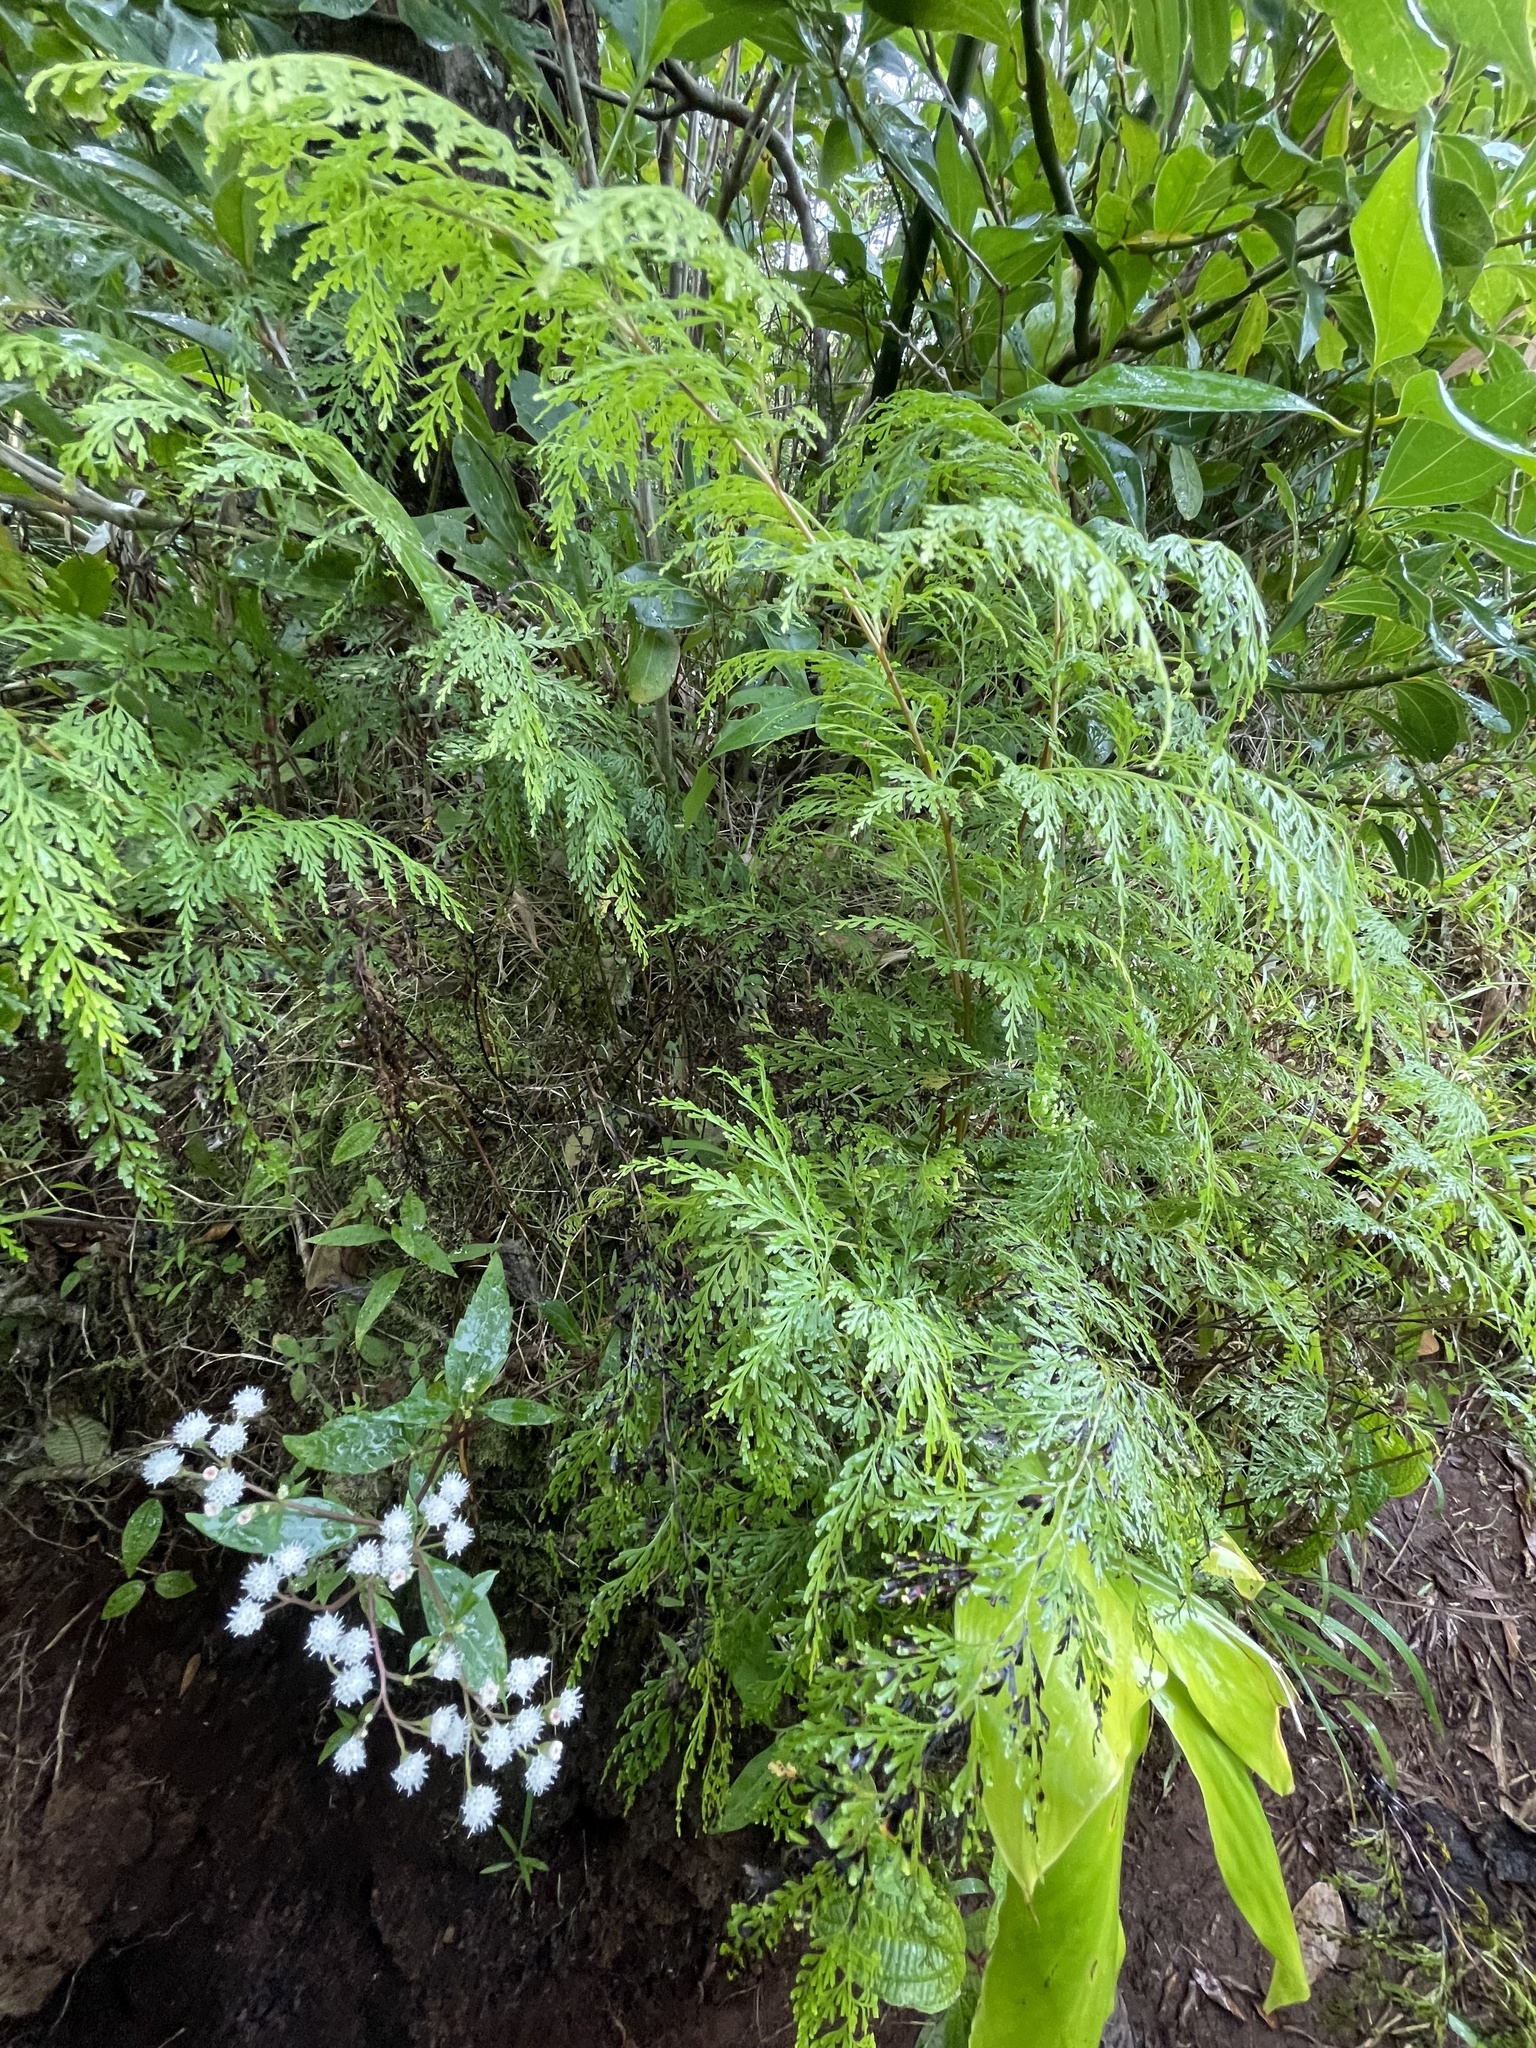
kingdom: Plantae
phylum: Tracheophyta
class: Polypodiopsida
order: Polypodiales
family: Lindsaeaceae
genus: Odontosoria
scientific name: Odontosoria chinensis
